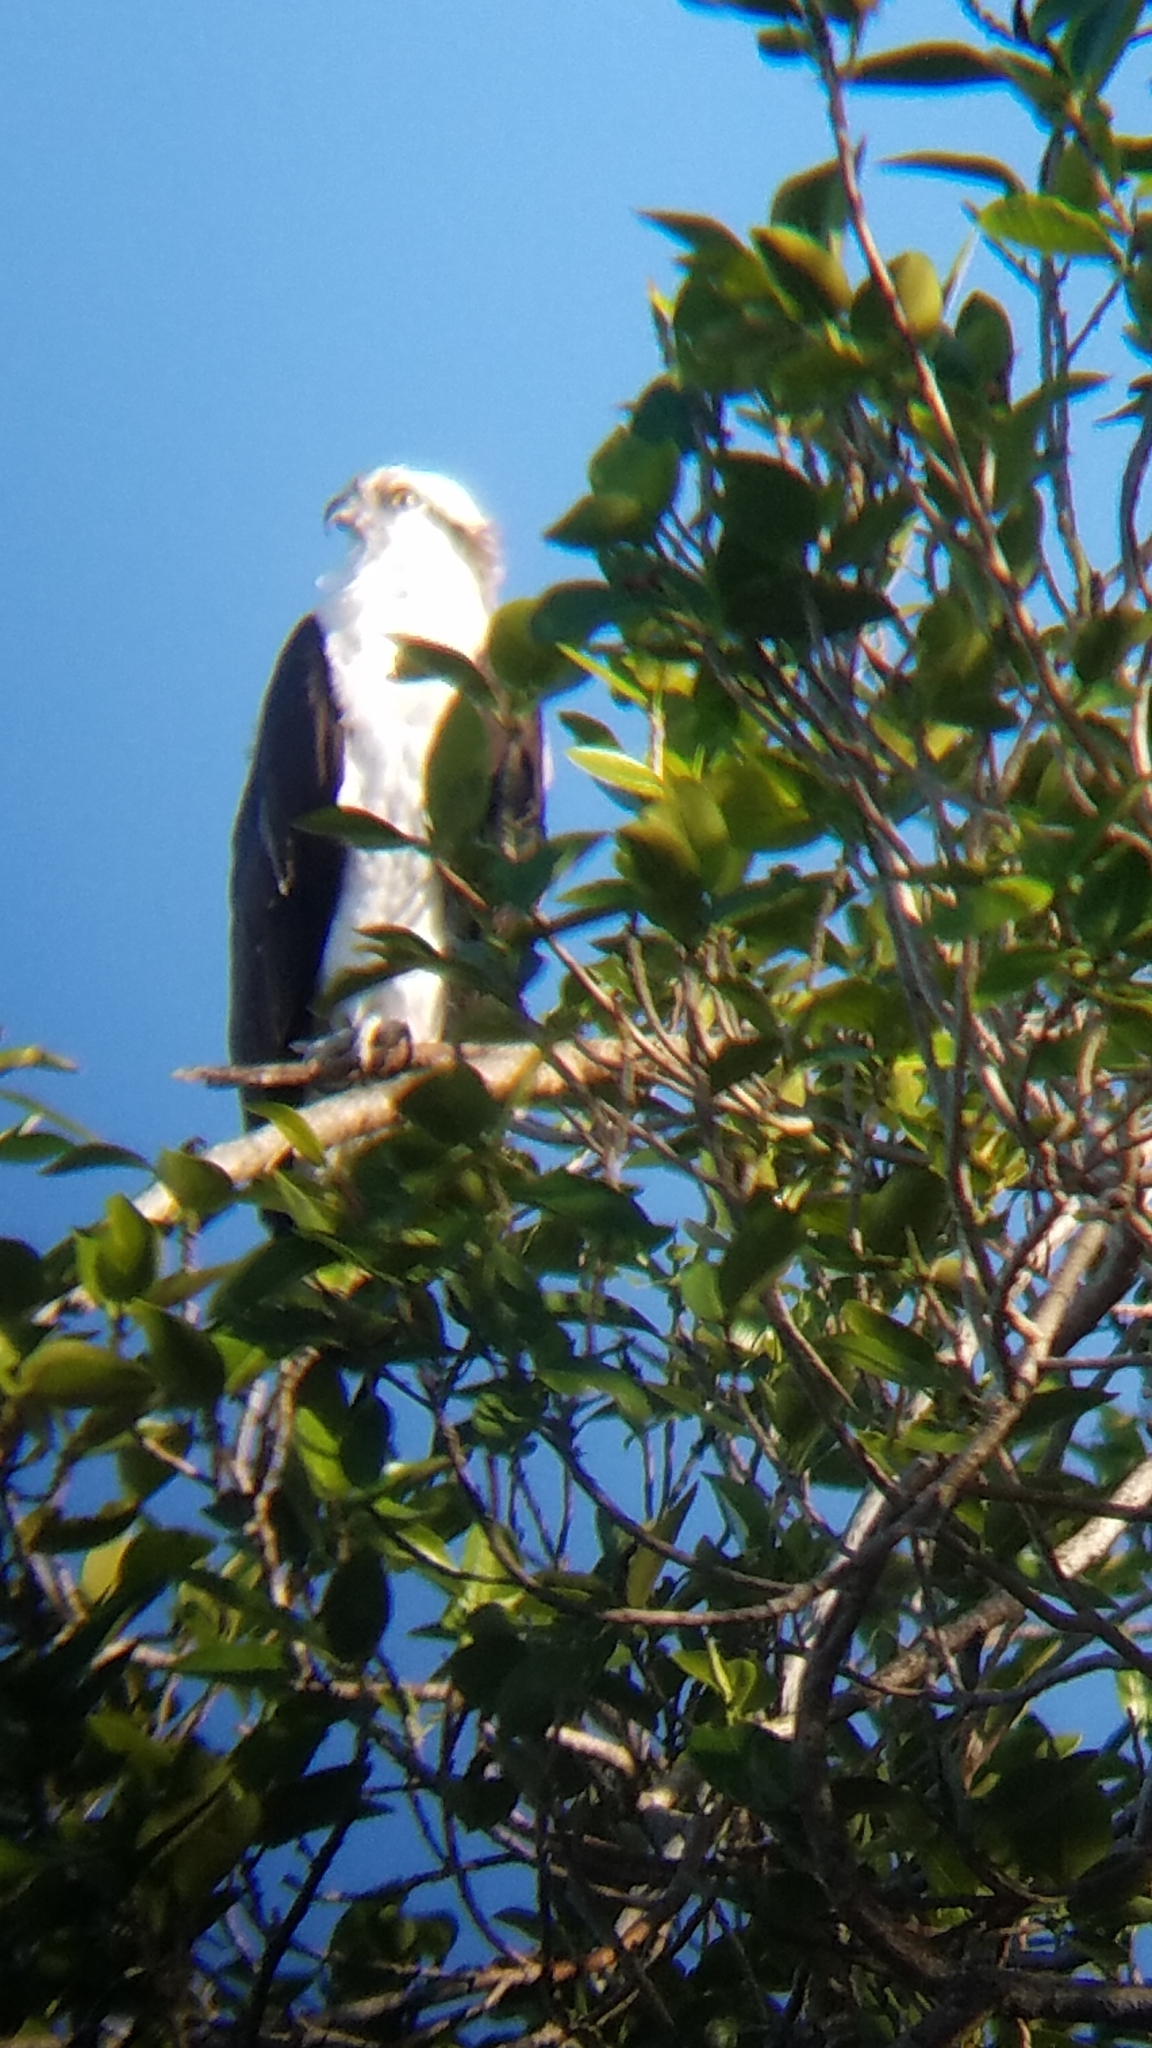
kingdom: Animalia
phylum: Chordata
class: Aves
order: Accipitriformes
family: Pandionidae
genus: Pandion
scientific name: Pandion haliaetus
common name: Osprey
